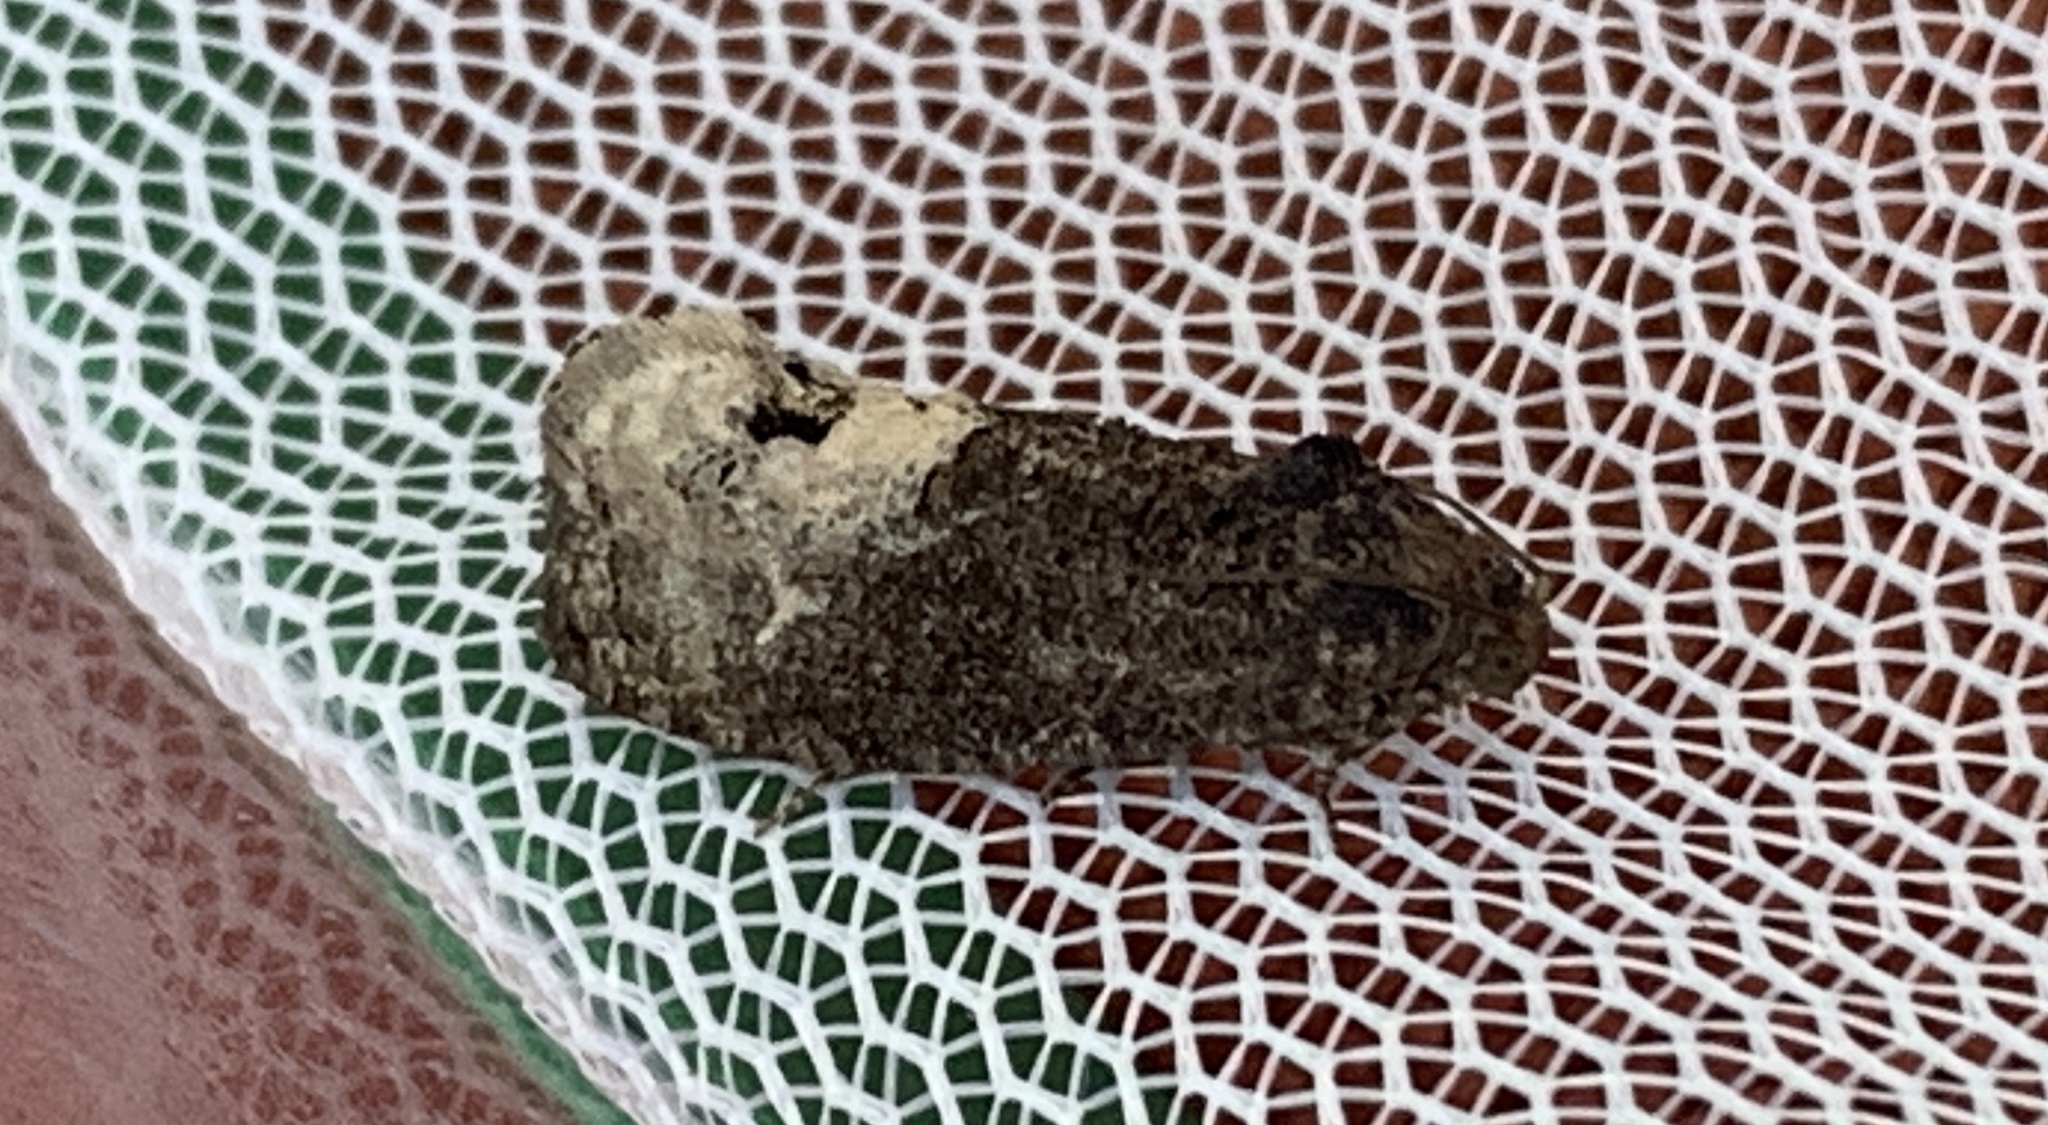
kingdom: Animalia
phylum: Arthropoda
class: Insecta
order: Lepidoptera
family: Tortricidae
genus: Ecdytolopha
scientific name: Ecdytolopha insiticiana
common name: Locust twig borer moth
